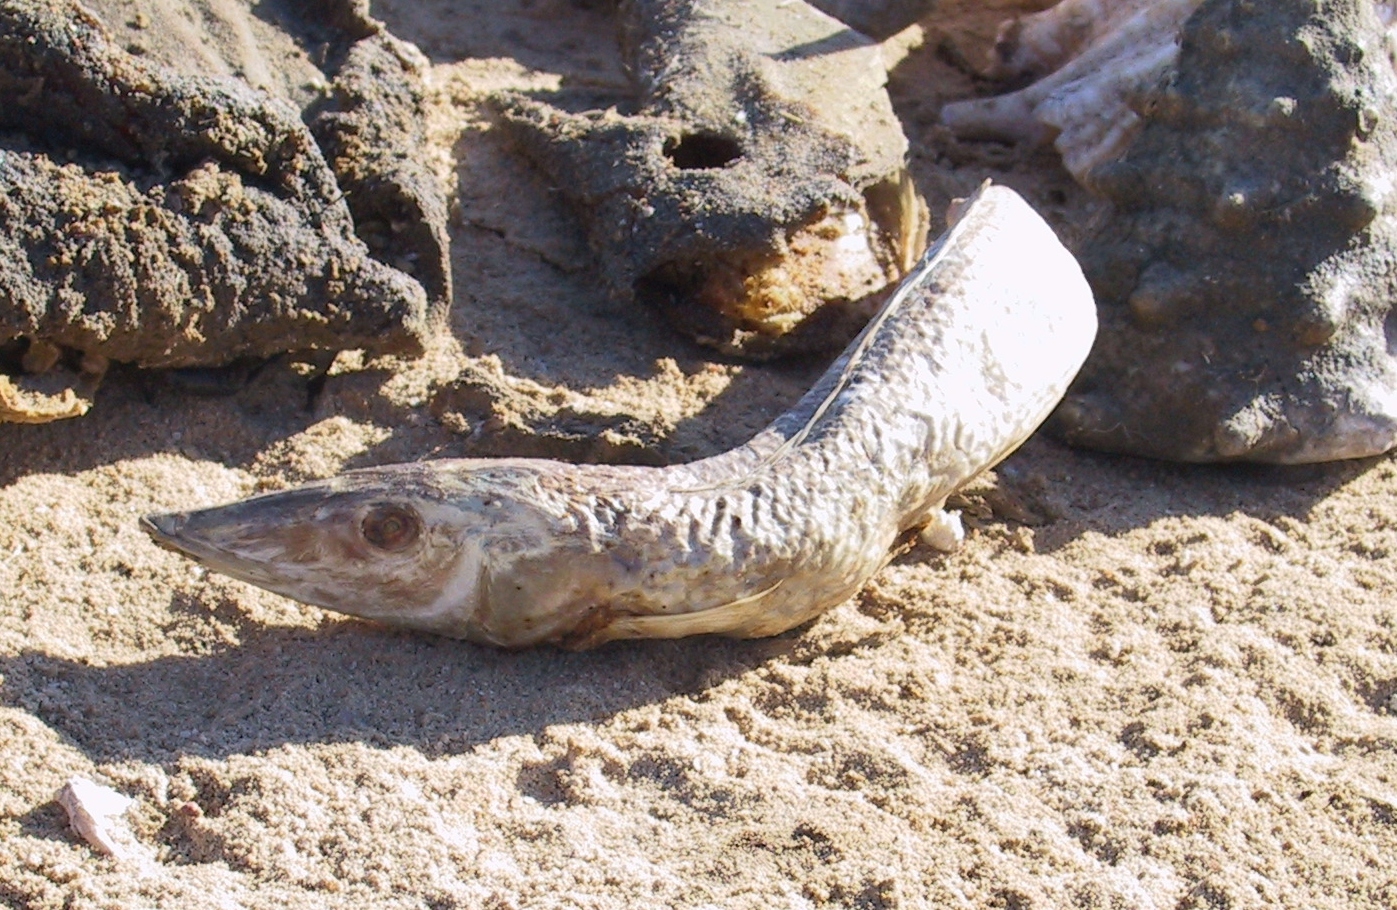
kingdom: Animalia
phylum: Chordata
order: Perciformes
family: Labridae
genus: Cheilio
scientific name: Cheilio inermis
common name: Cigar wrasse
